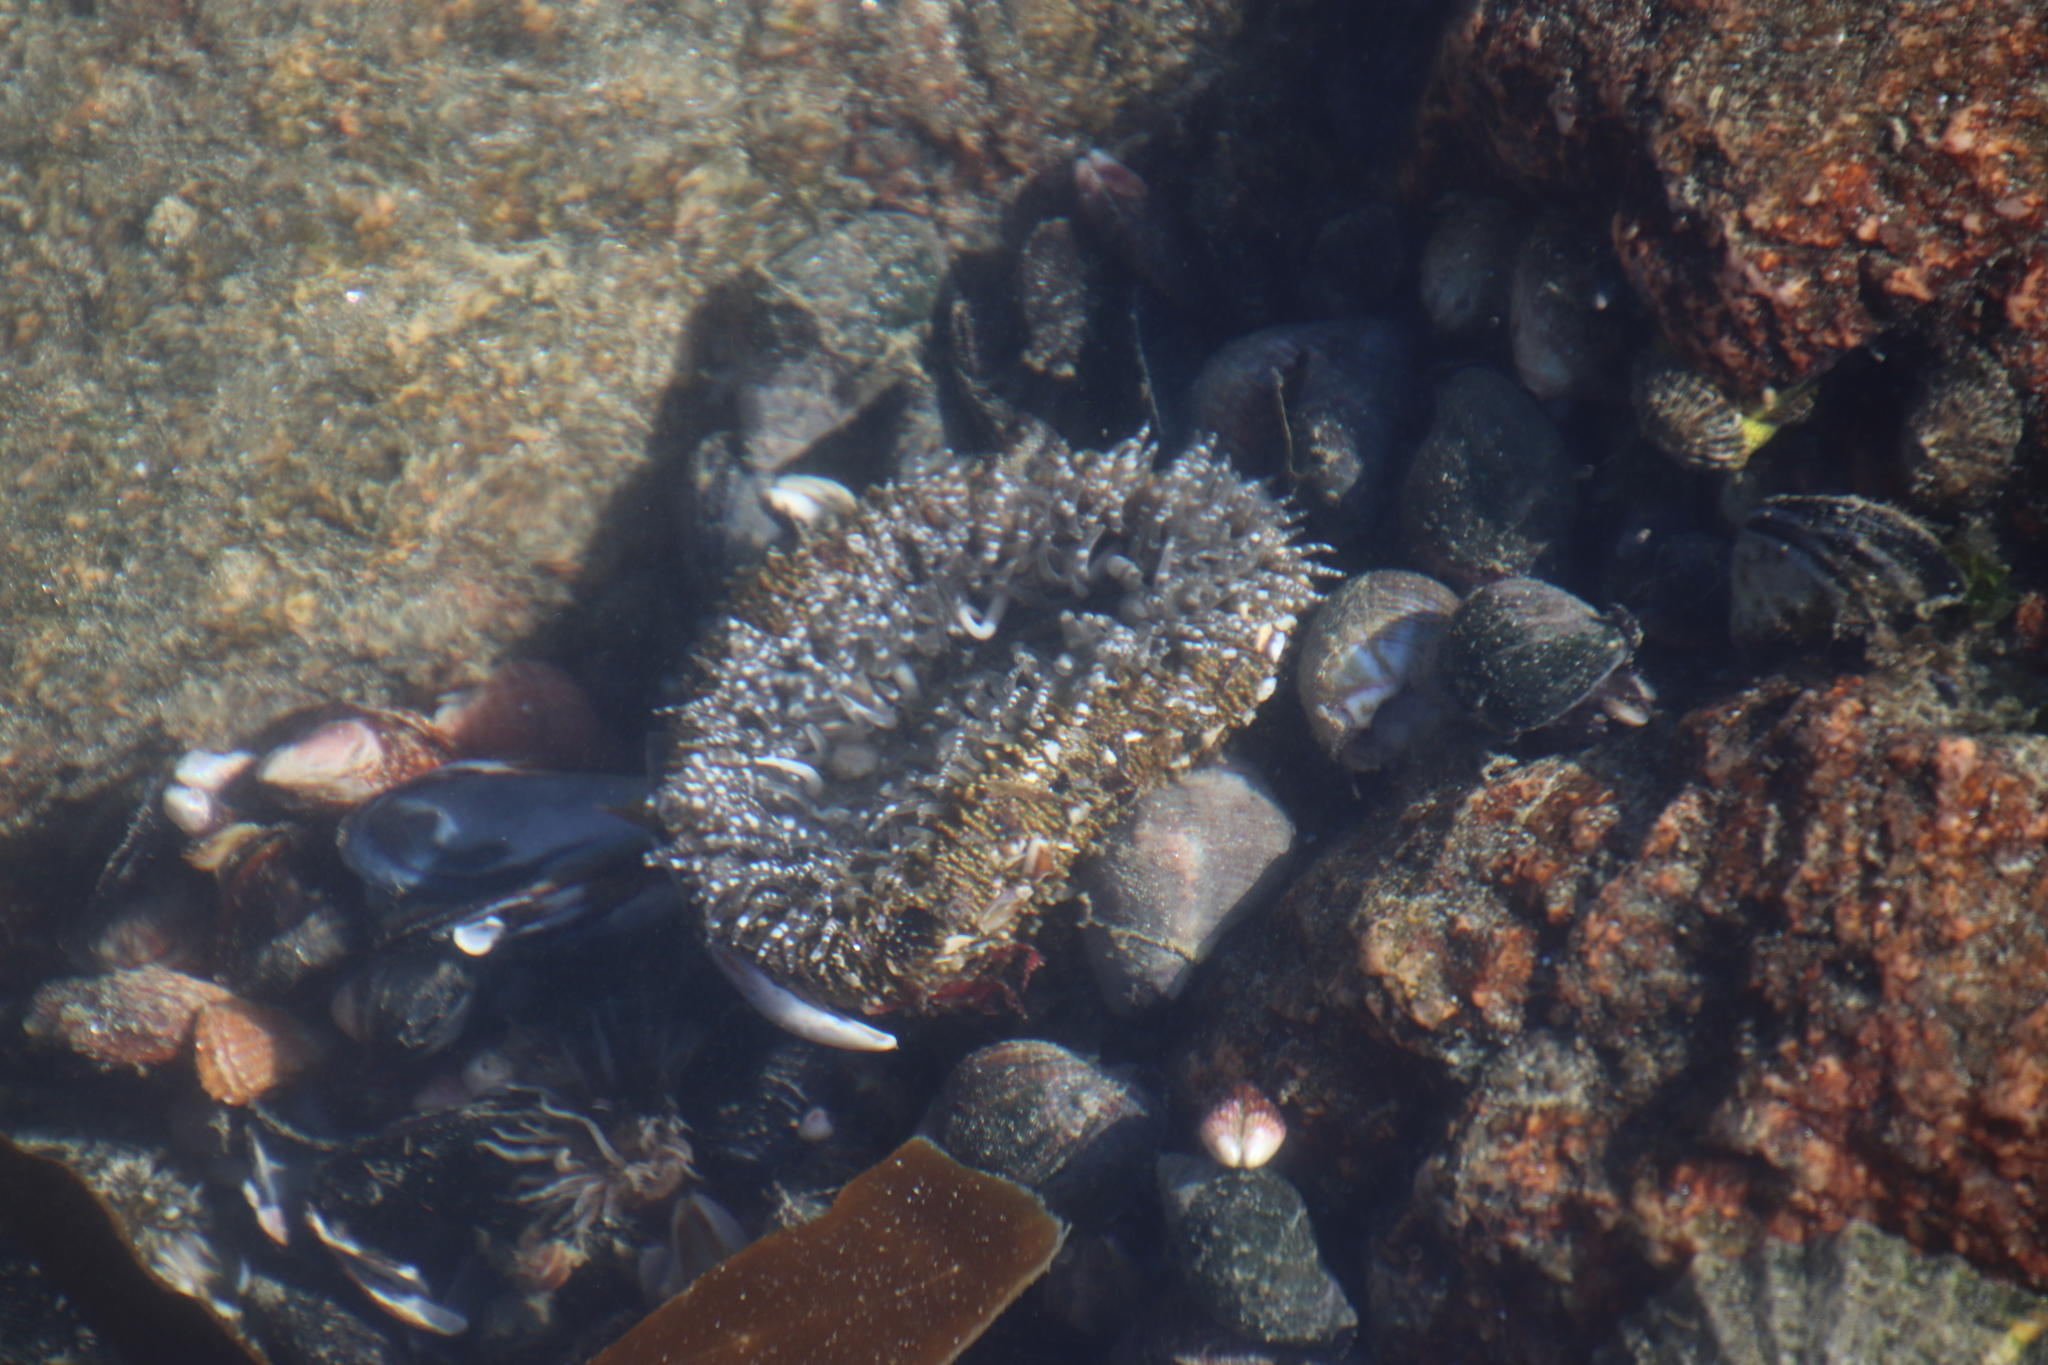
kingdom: Animalia
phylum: Cnidaria
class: Anthozoa
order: Actiniaria
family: Actiniidae
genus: Bunodactis
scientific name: Bunodactis reynaudi
